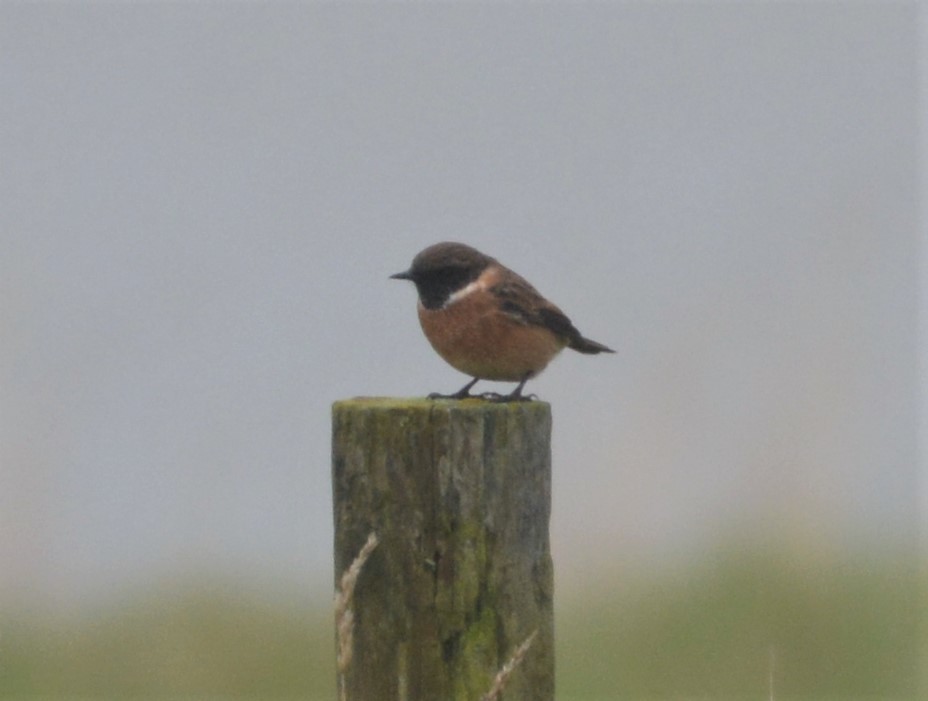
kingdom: Animalia
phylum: Chordata
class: Aves
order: Passeriformes
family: Muscicapidae
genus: Saxicola
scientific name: Saxicola rubicola
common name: European stonechat
